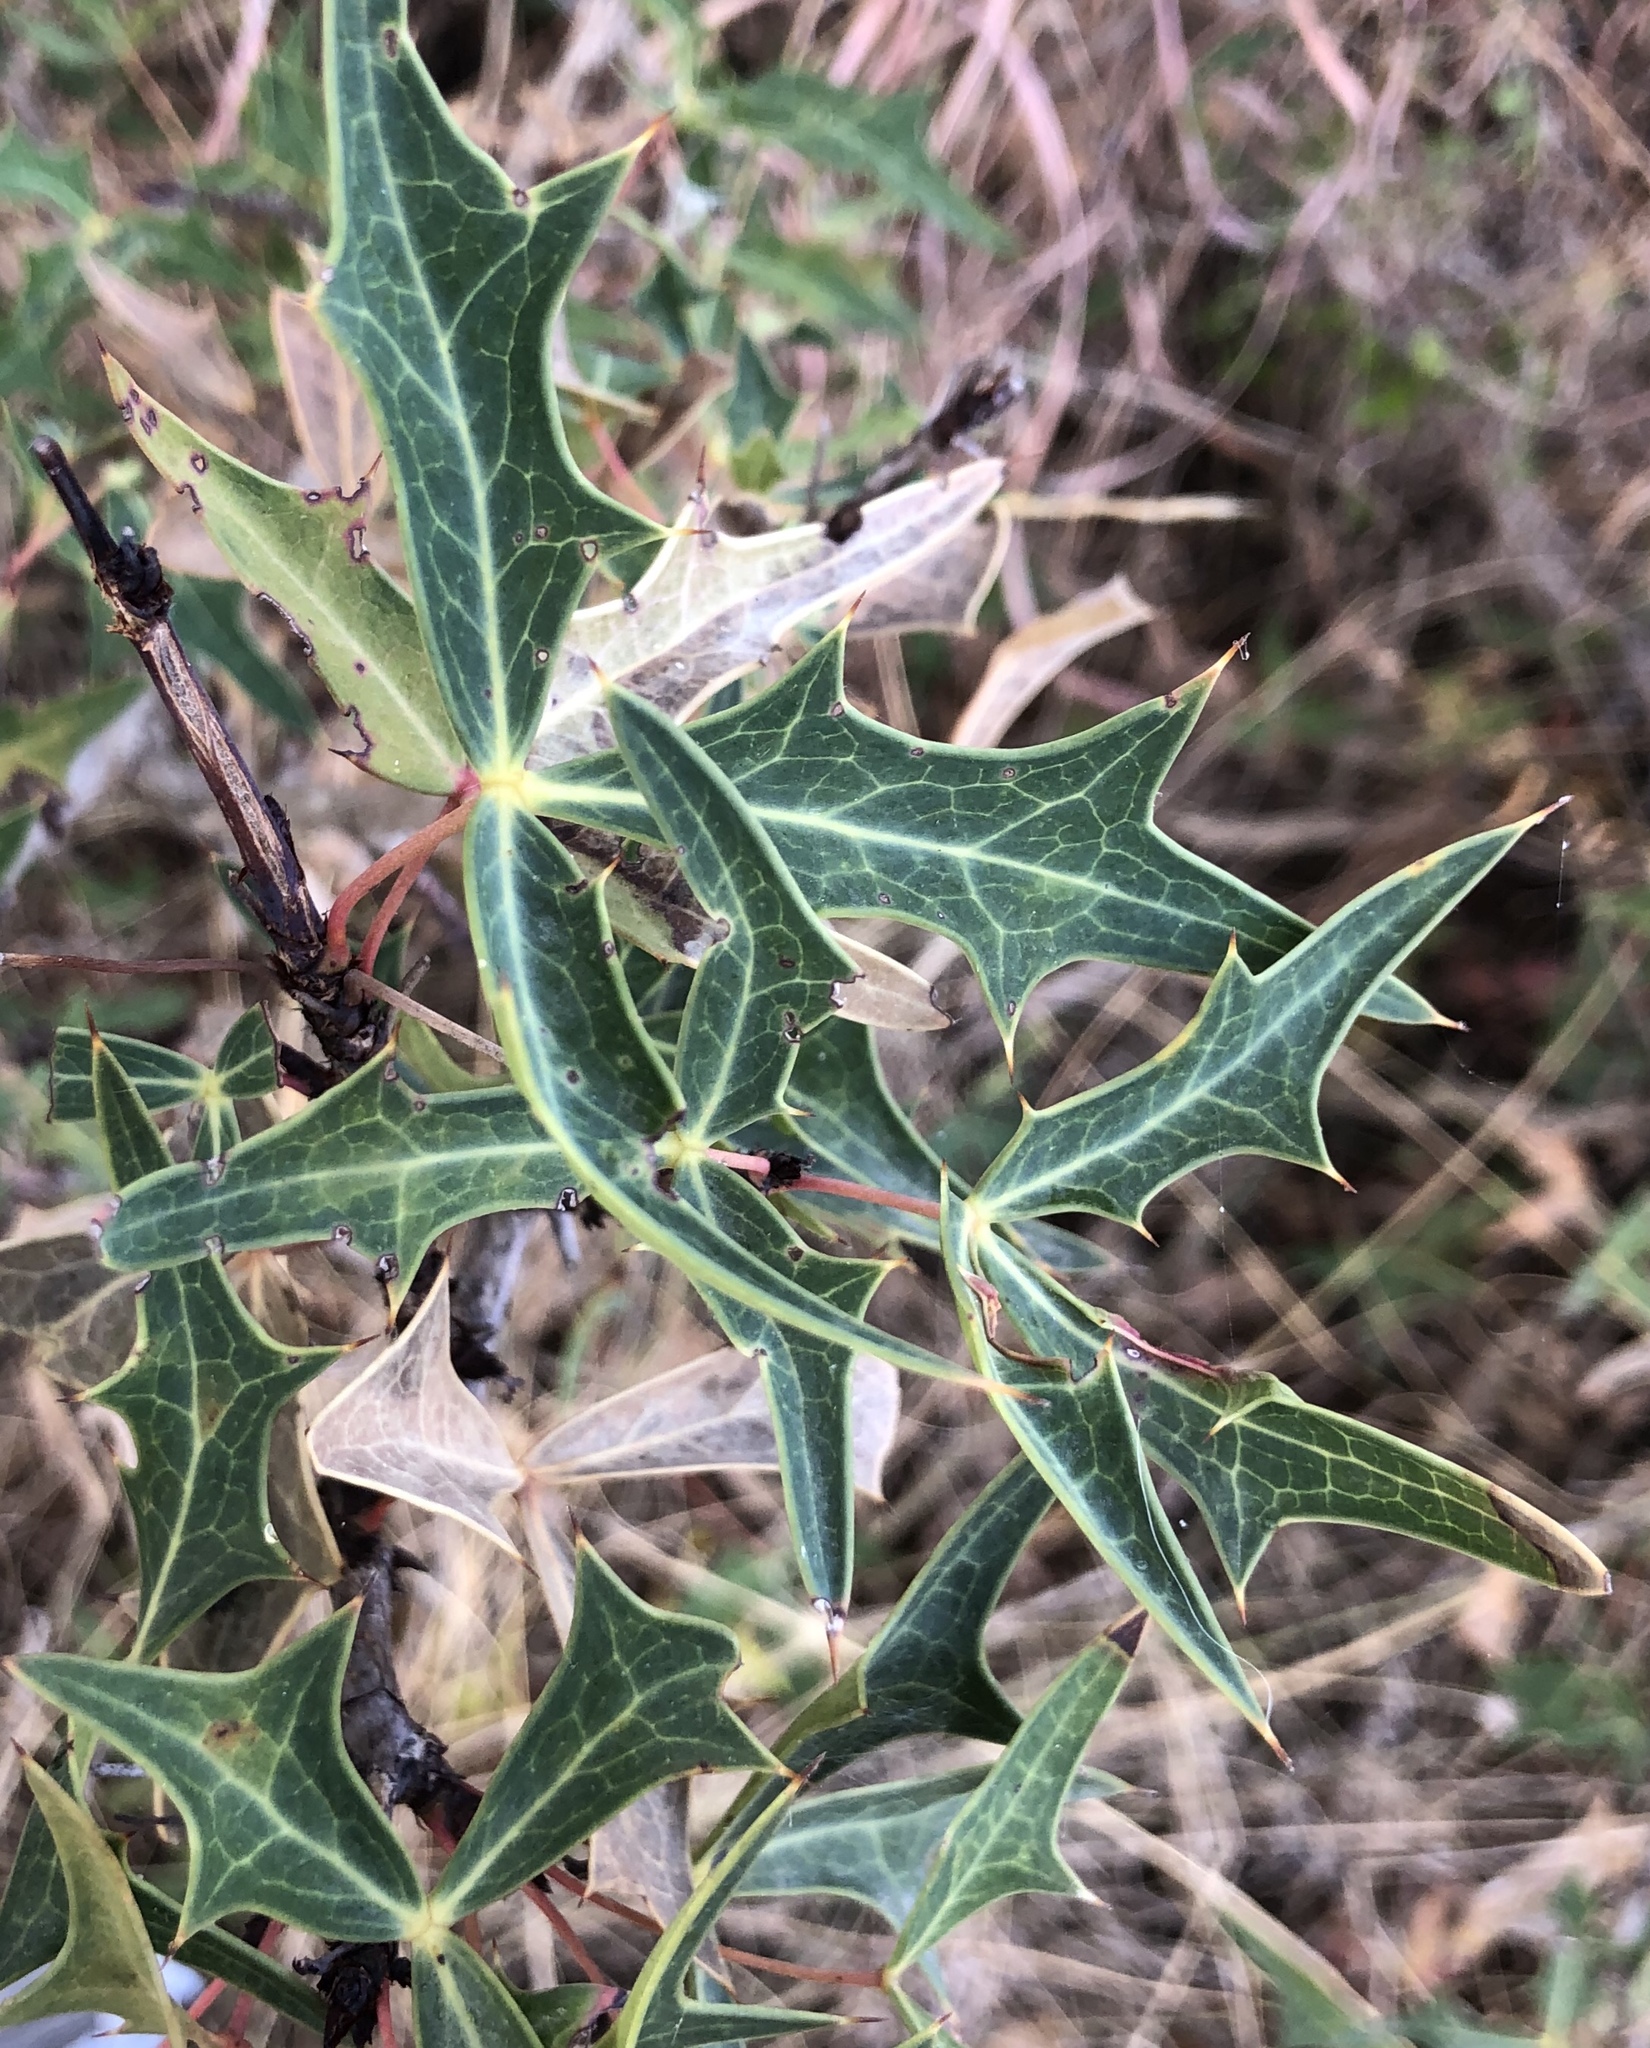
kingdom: Plantae
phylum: Tracheophyta
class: Magnoliopsida
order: Ranunculales
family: Berberidaceae
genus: Alloberberis
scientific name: Alloberberis trifoliolata
